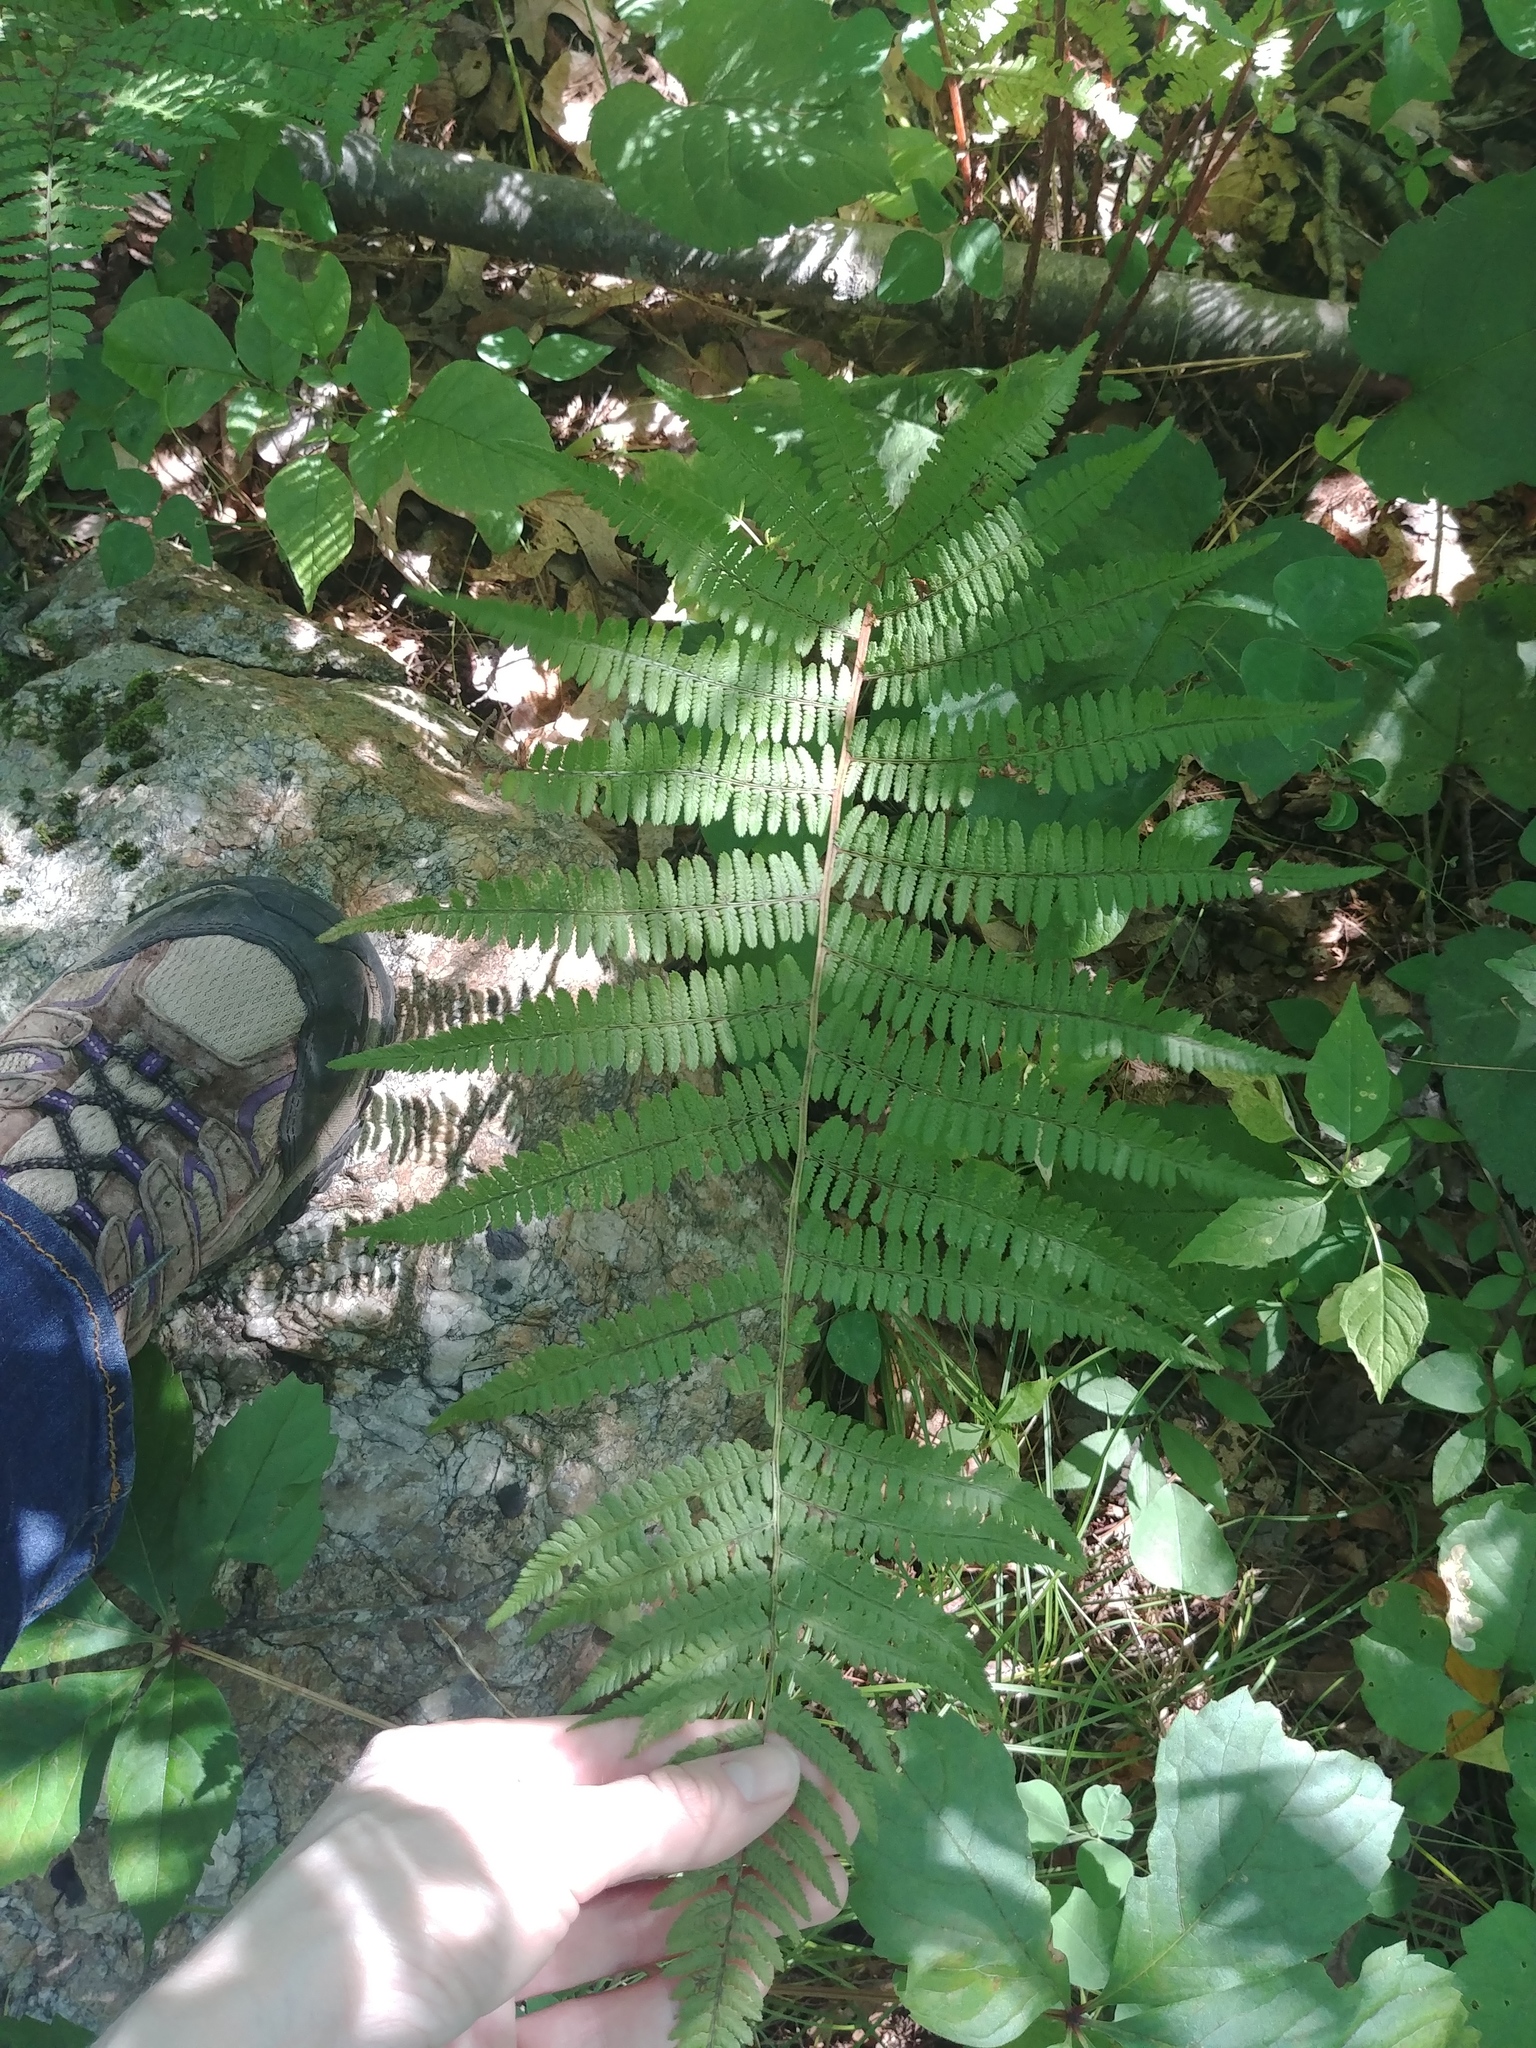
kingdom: Plantae
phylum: Tracheophyta
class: Polypodiopsida
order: Polypodiales
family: Athyriaceae
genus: Athyrium
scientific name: Athyrium angustum
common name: Northern lady fern
